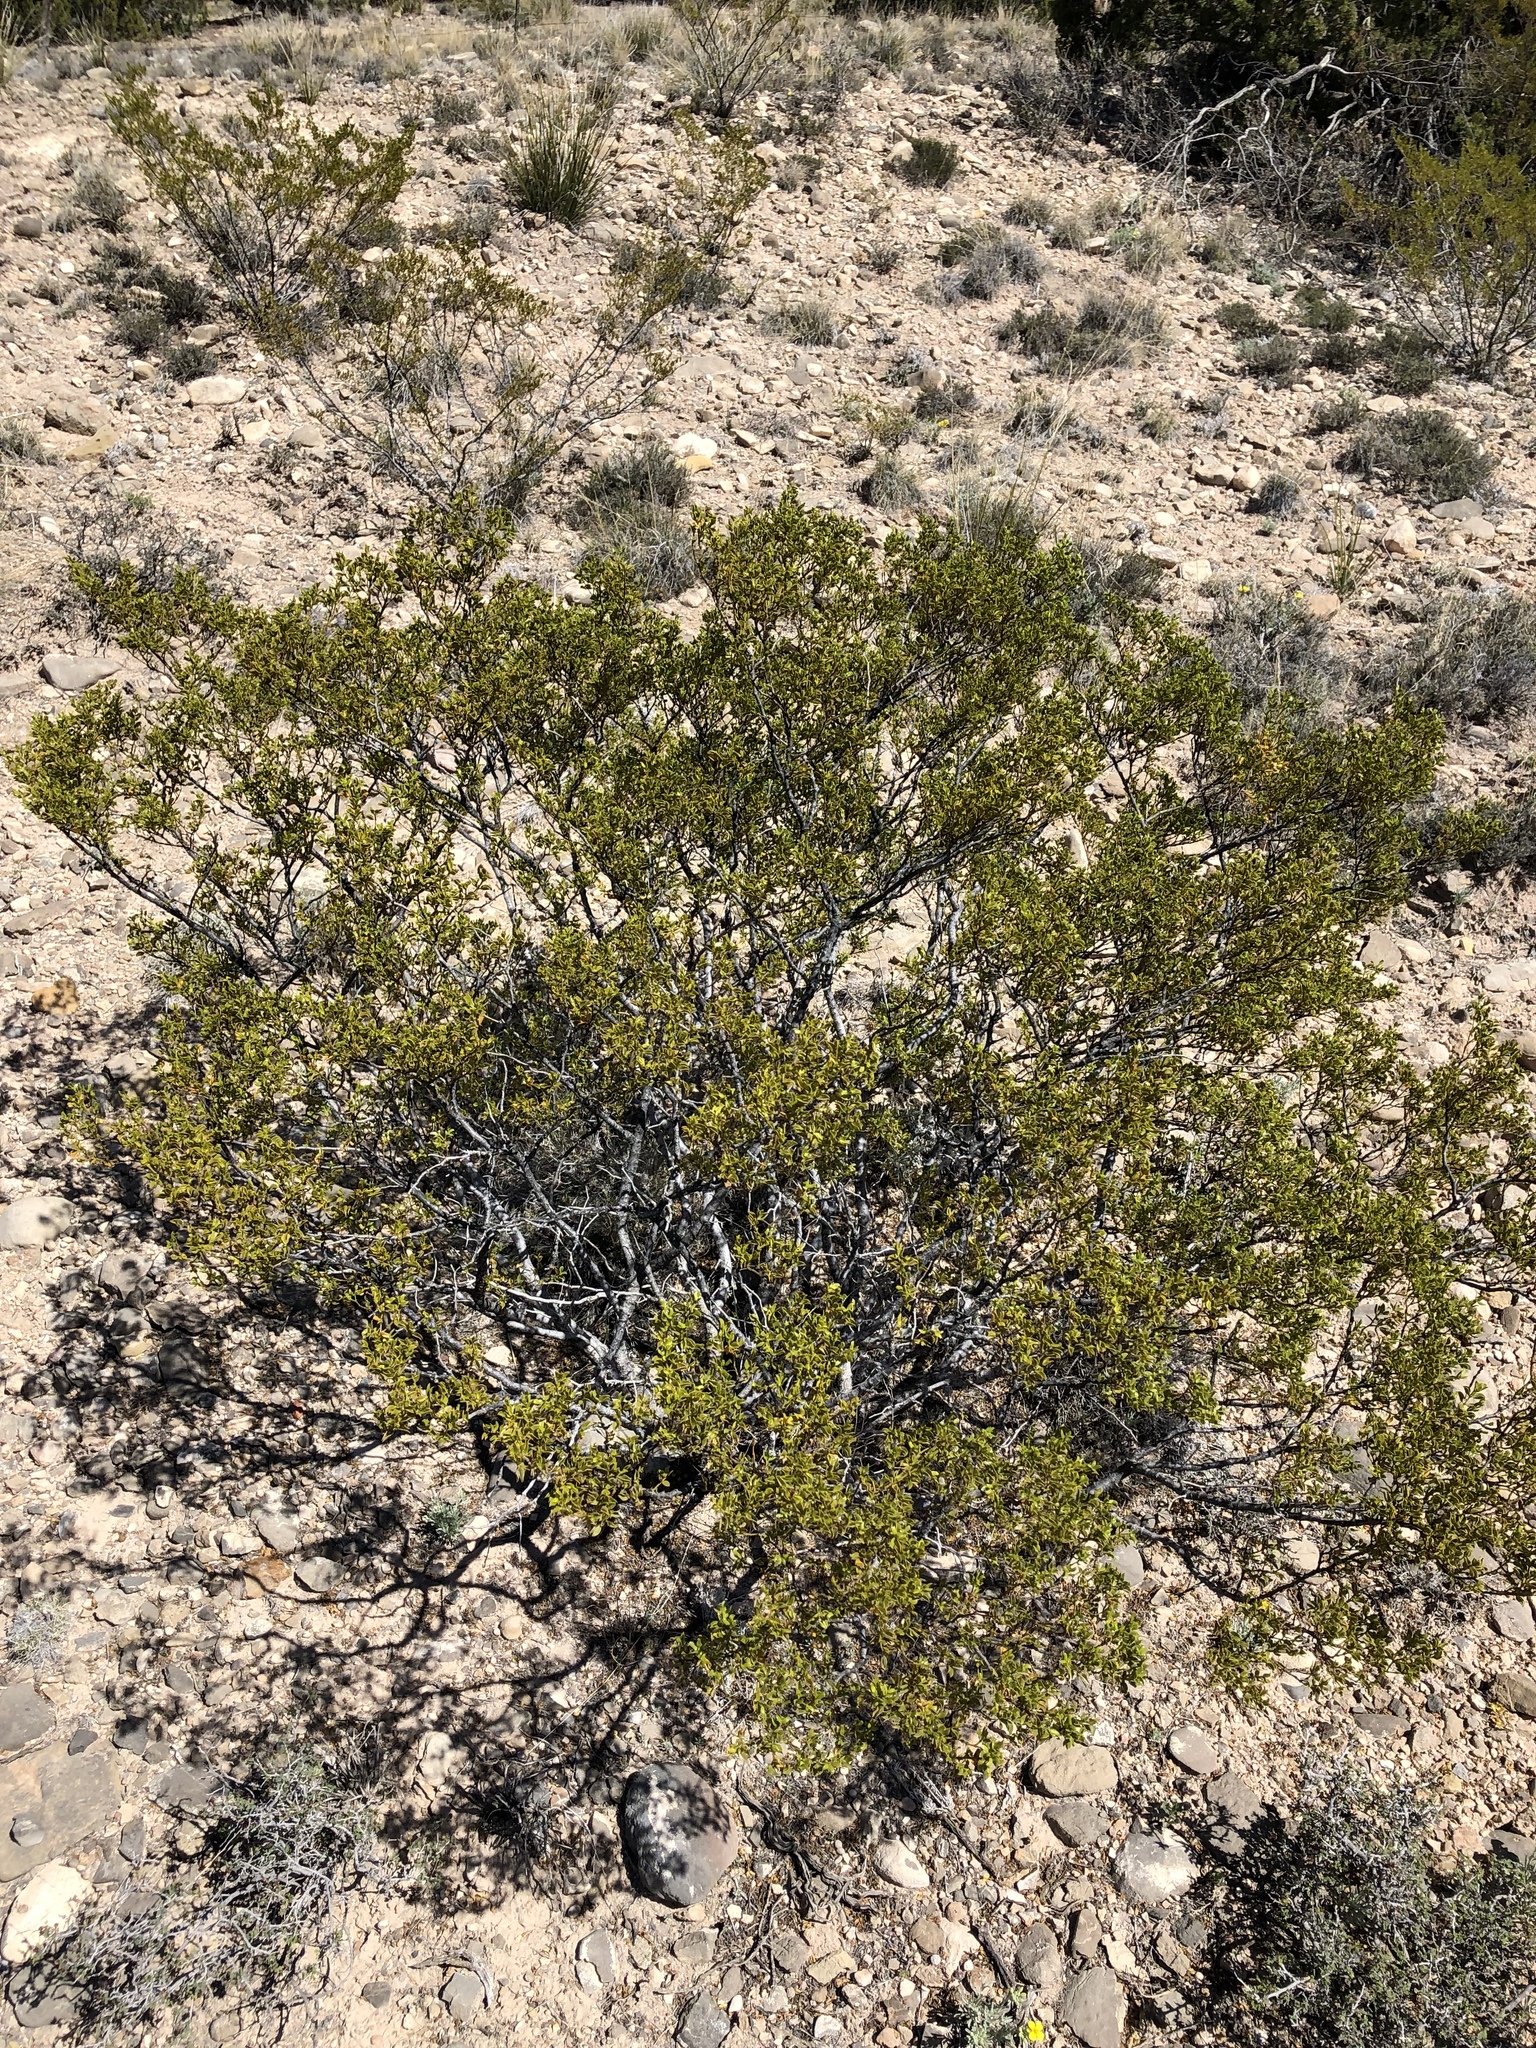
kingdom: Plantae
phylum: Tracheophyta
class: Magnoliopsida
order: Zygophyllales
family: Zygophyllaceae
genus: Larrea
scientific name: Larrea tridentata
